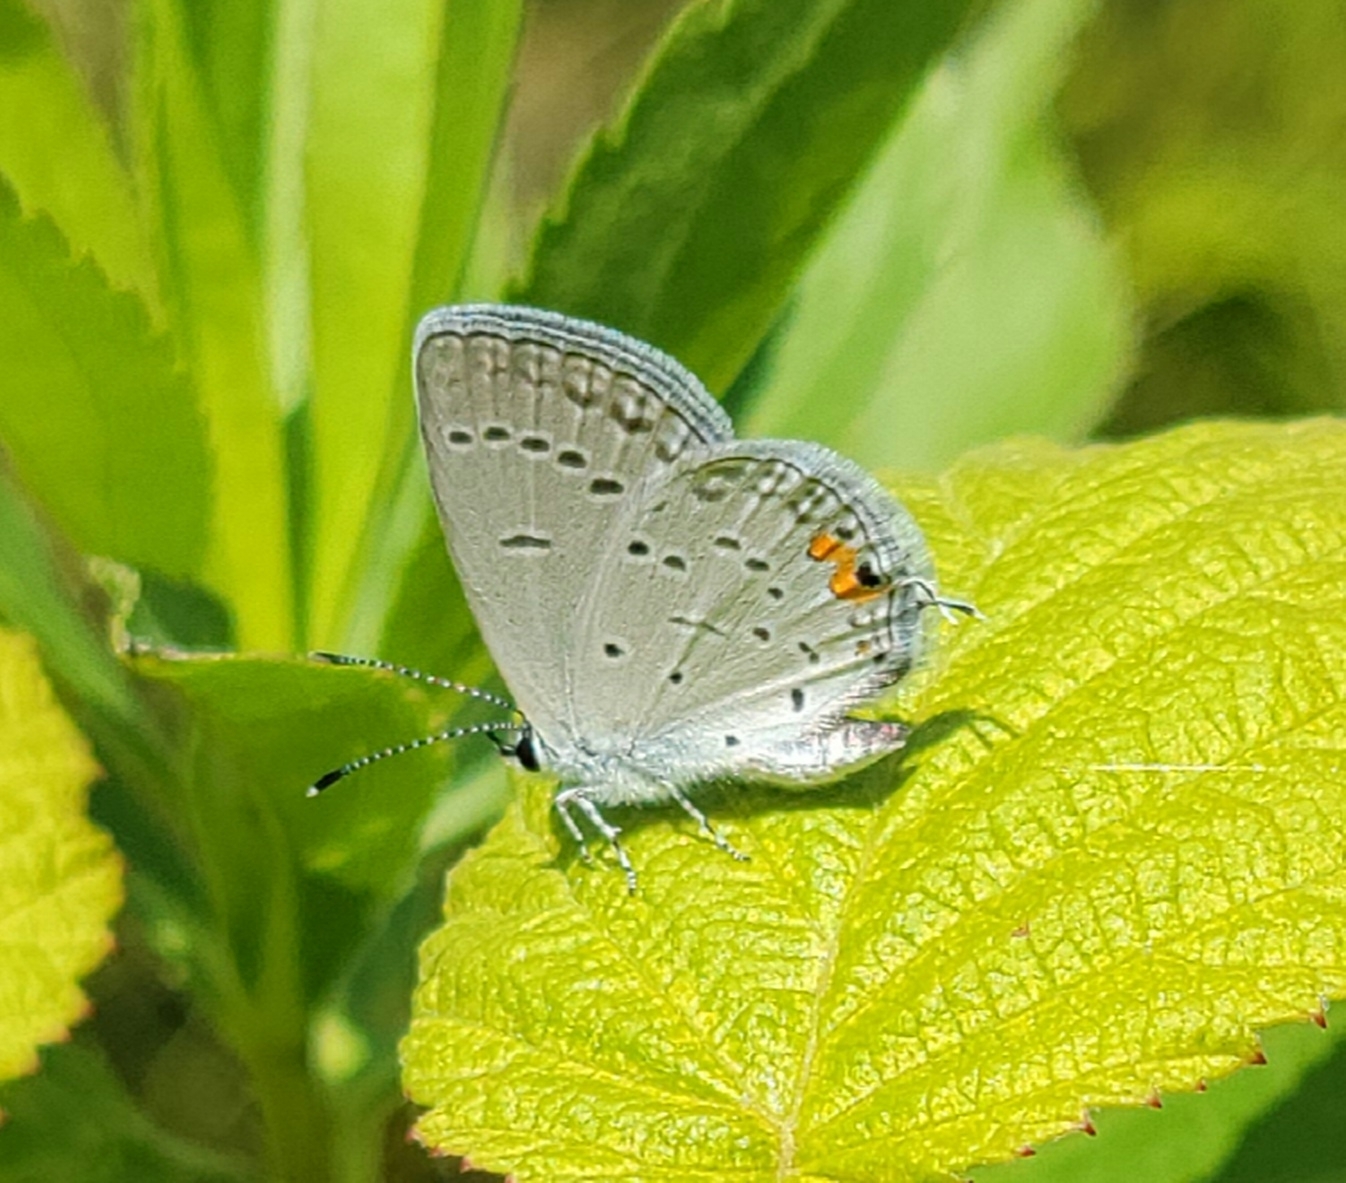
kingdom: Animalia
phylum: Arthropoda
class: Insecta
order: Lepidoptera
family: Lycaenidae
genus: Elkalyce
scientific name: Elkalyce comyntas
